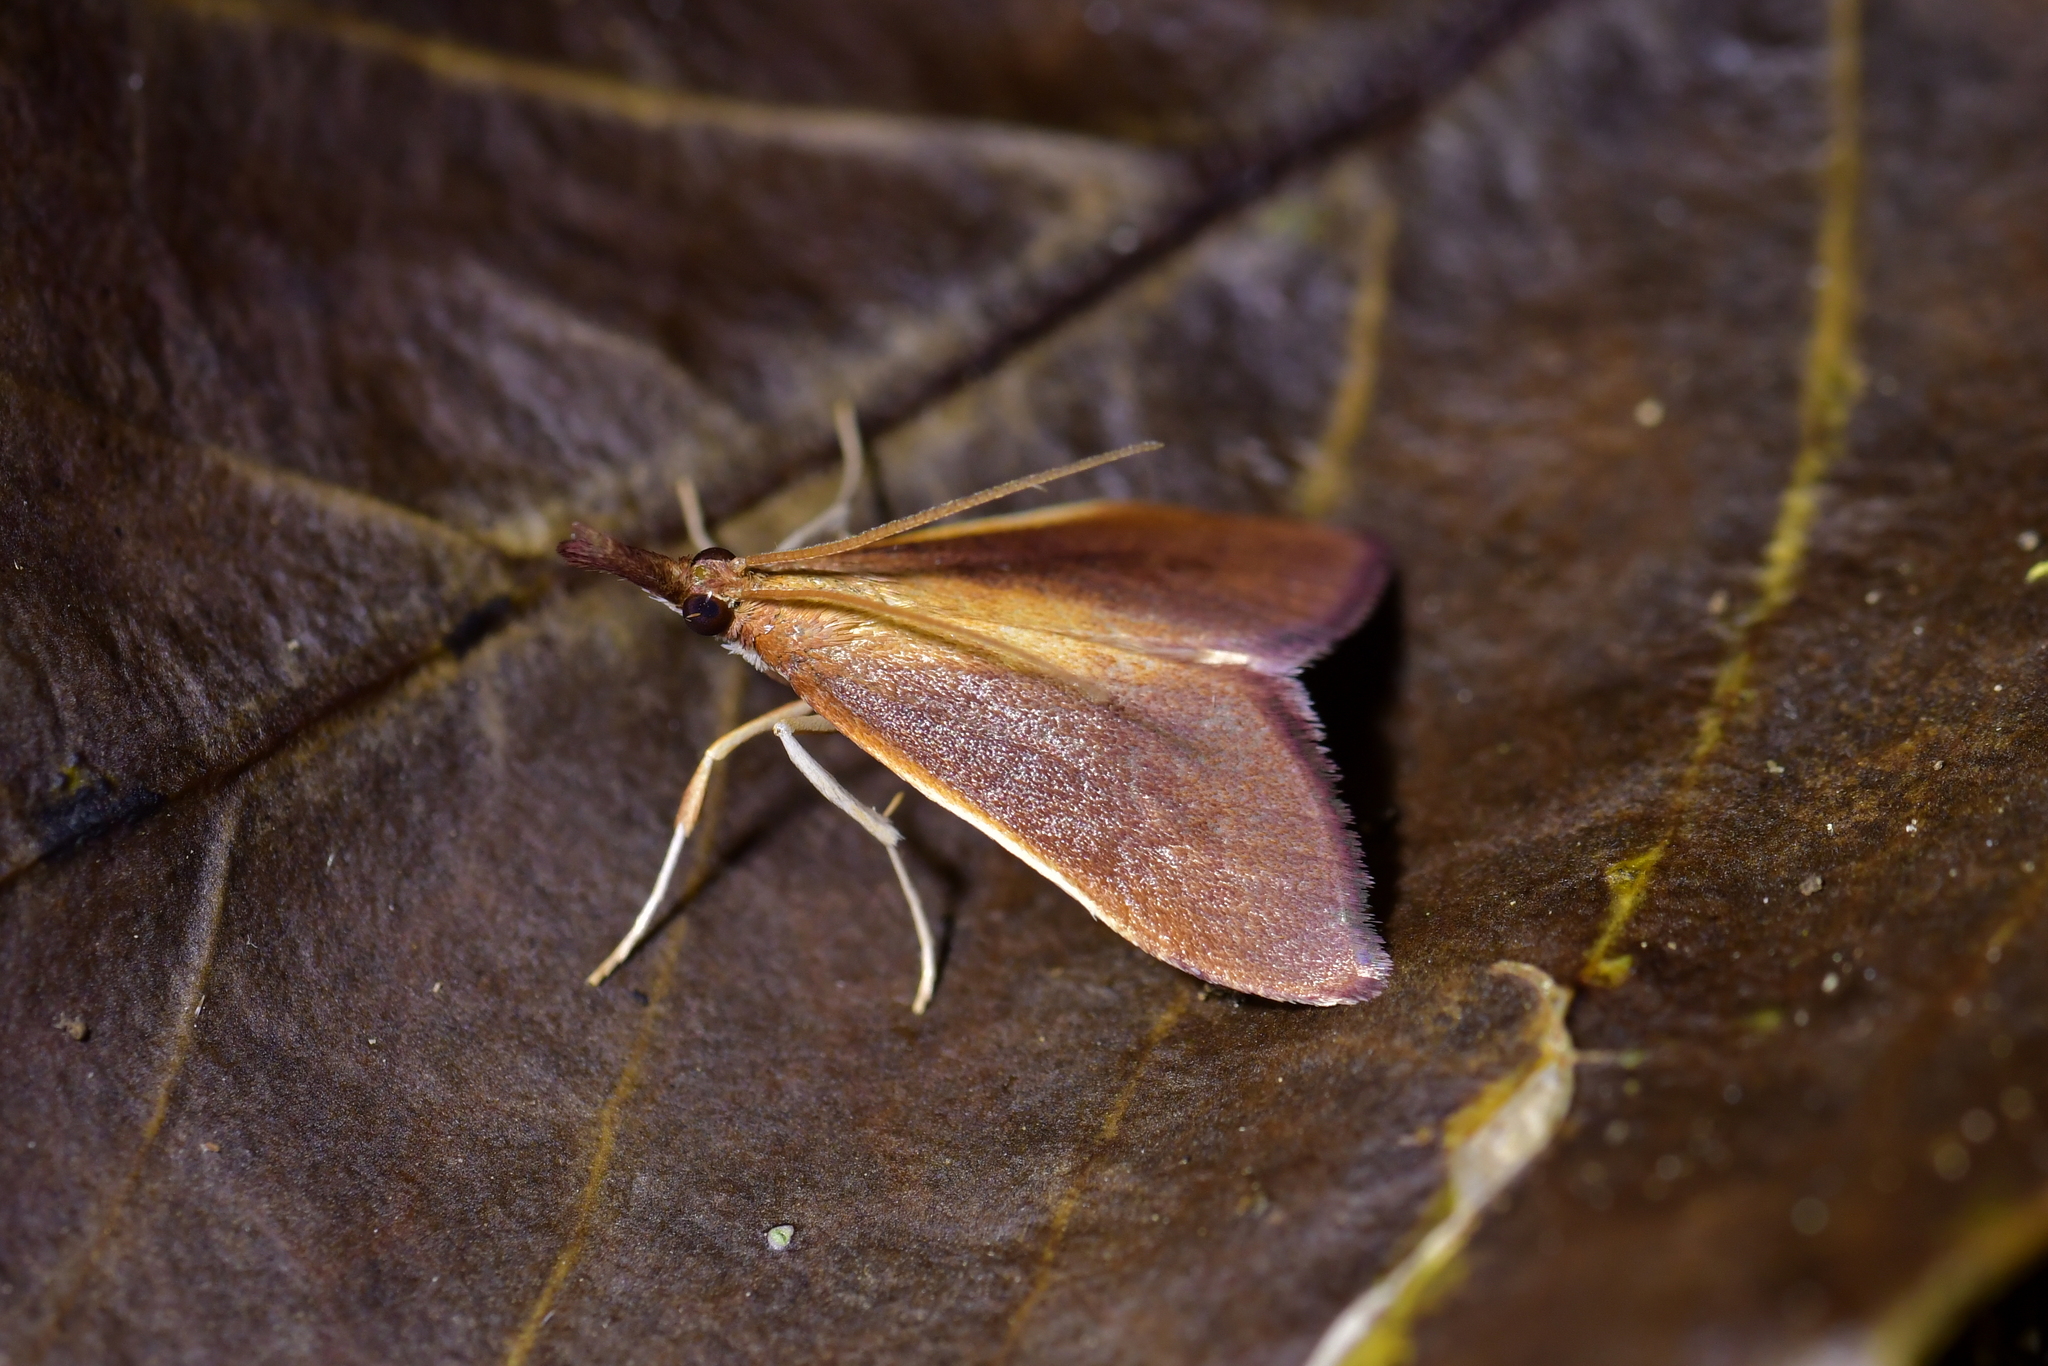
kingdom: Animalia
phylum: Arthropoda
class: Insecta
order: Lepidoptera
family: Crambidae
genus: Udea
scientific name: Udea daiclesalis
